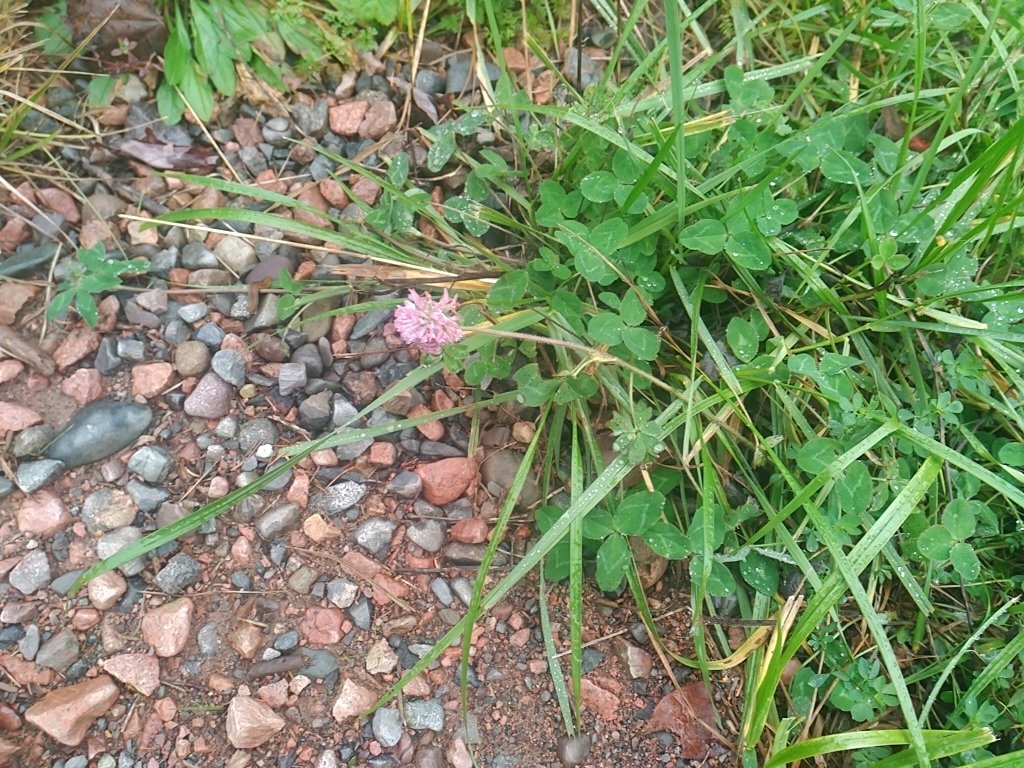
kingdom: Plantae
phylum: Tracheophyta
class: Magnoliopsida
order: Fabales
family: Fabaceae
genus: Trifolium
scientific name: Trifolium pratense
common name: Red clover
